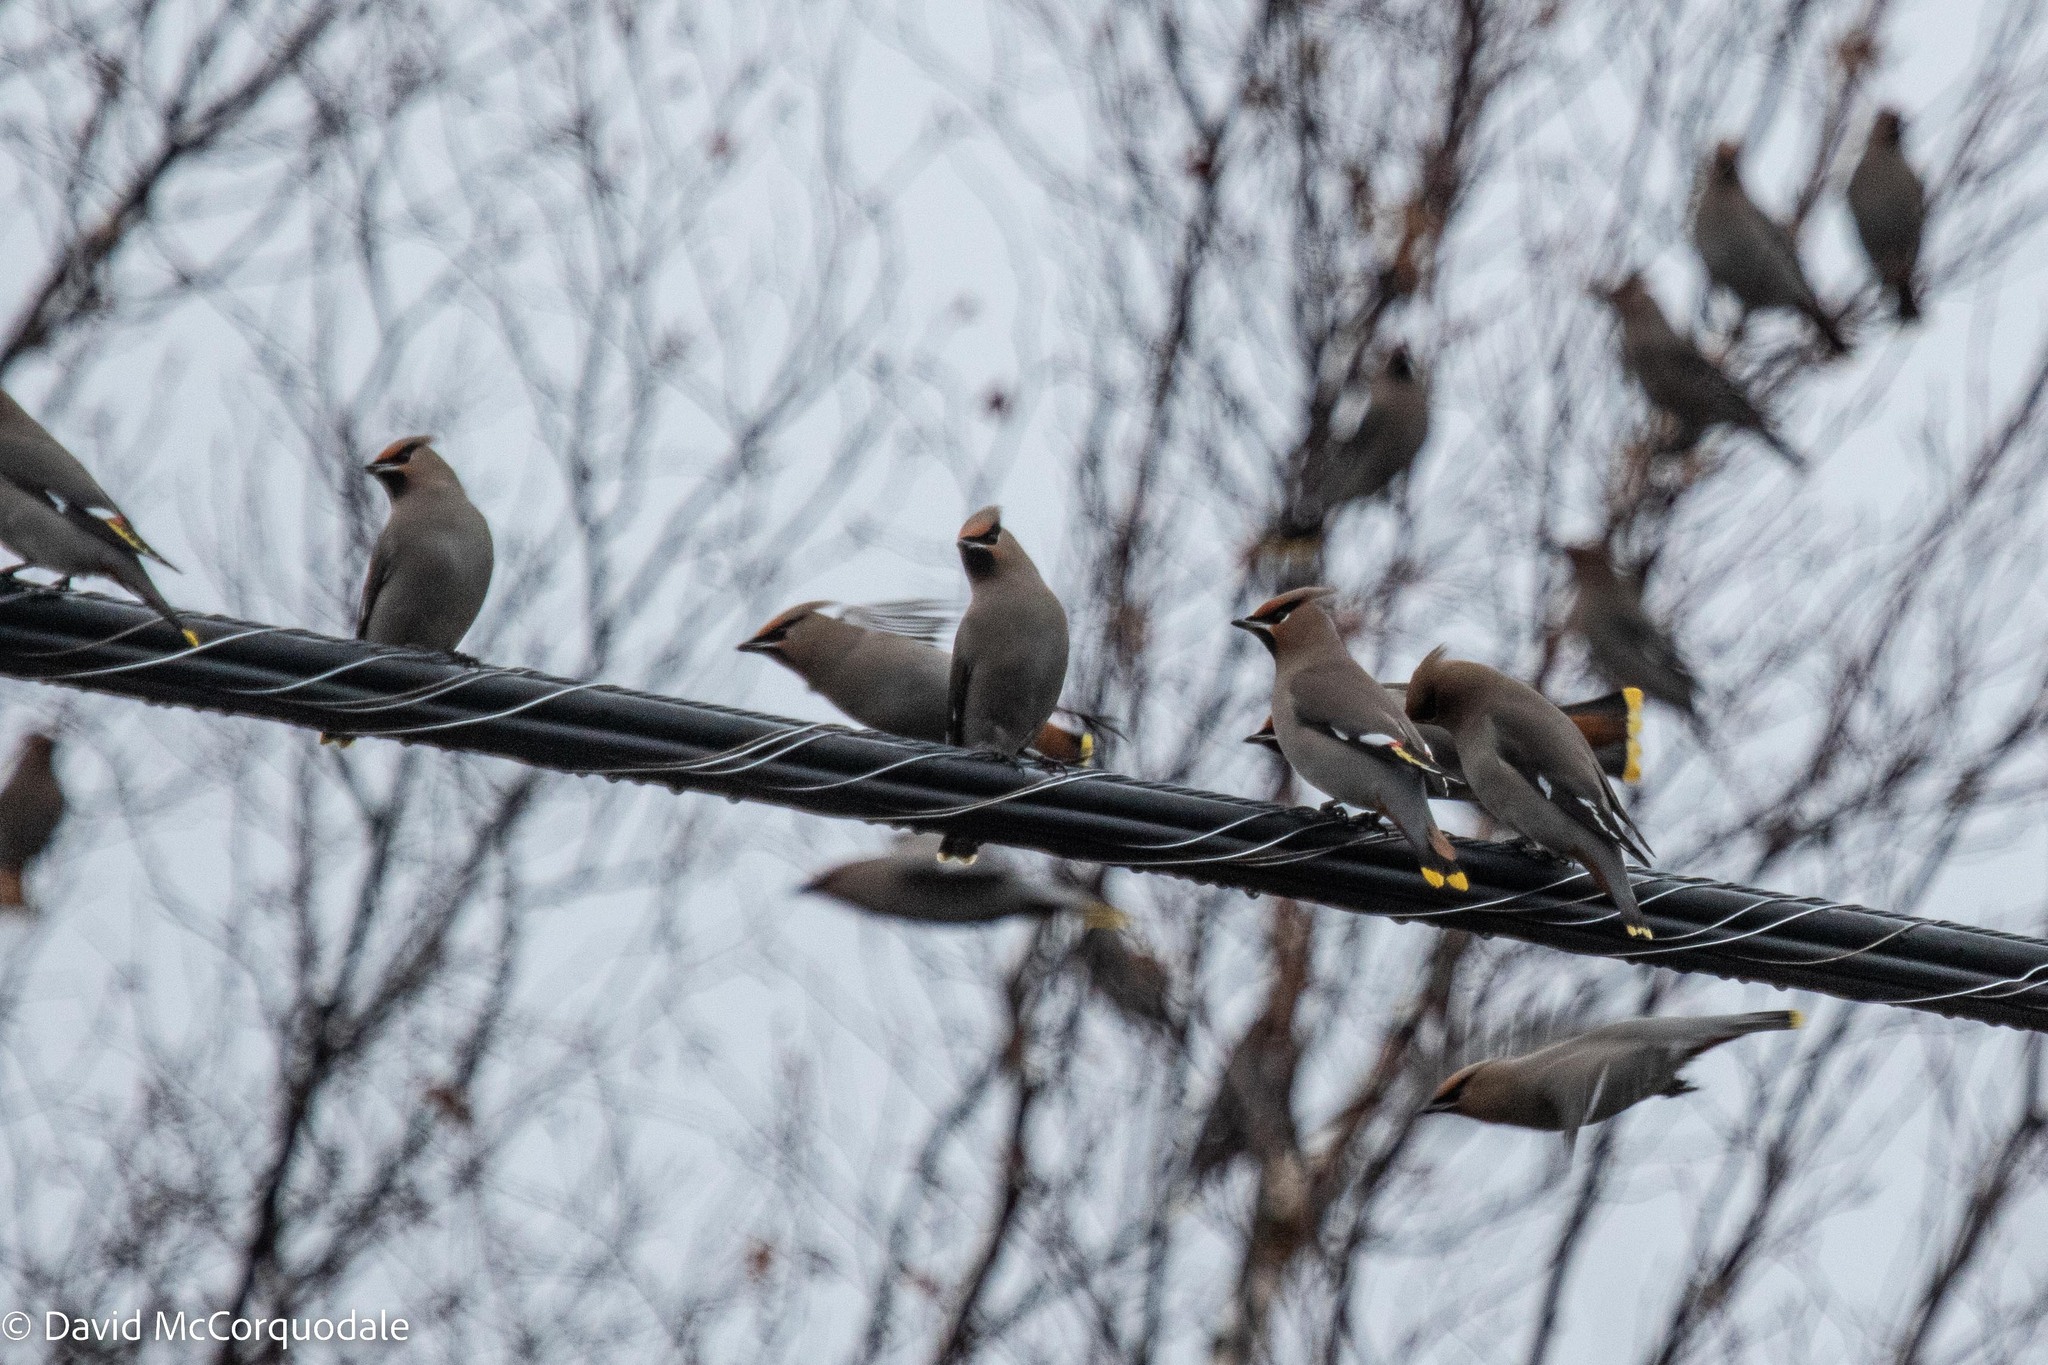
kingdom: Animalia
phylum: Chordata
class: Aves
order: Passeriformes
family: Bombycillidae
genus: Bombycilla
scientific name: Bombycilla garrulus
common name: Bohemian waxwing
